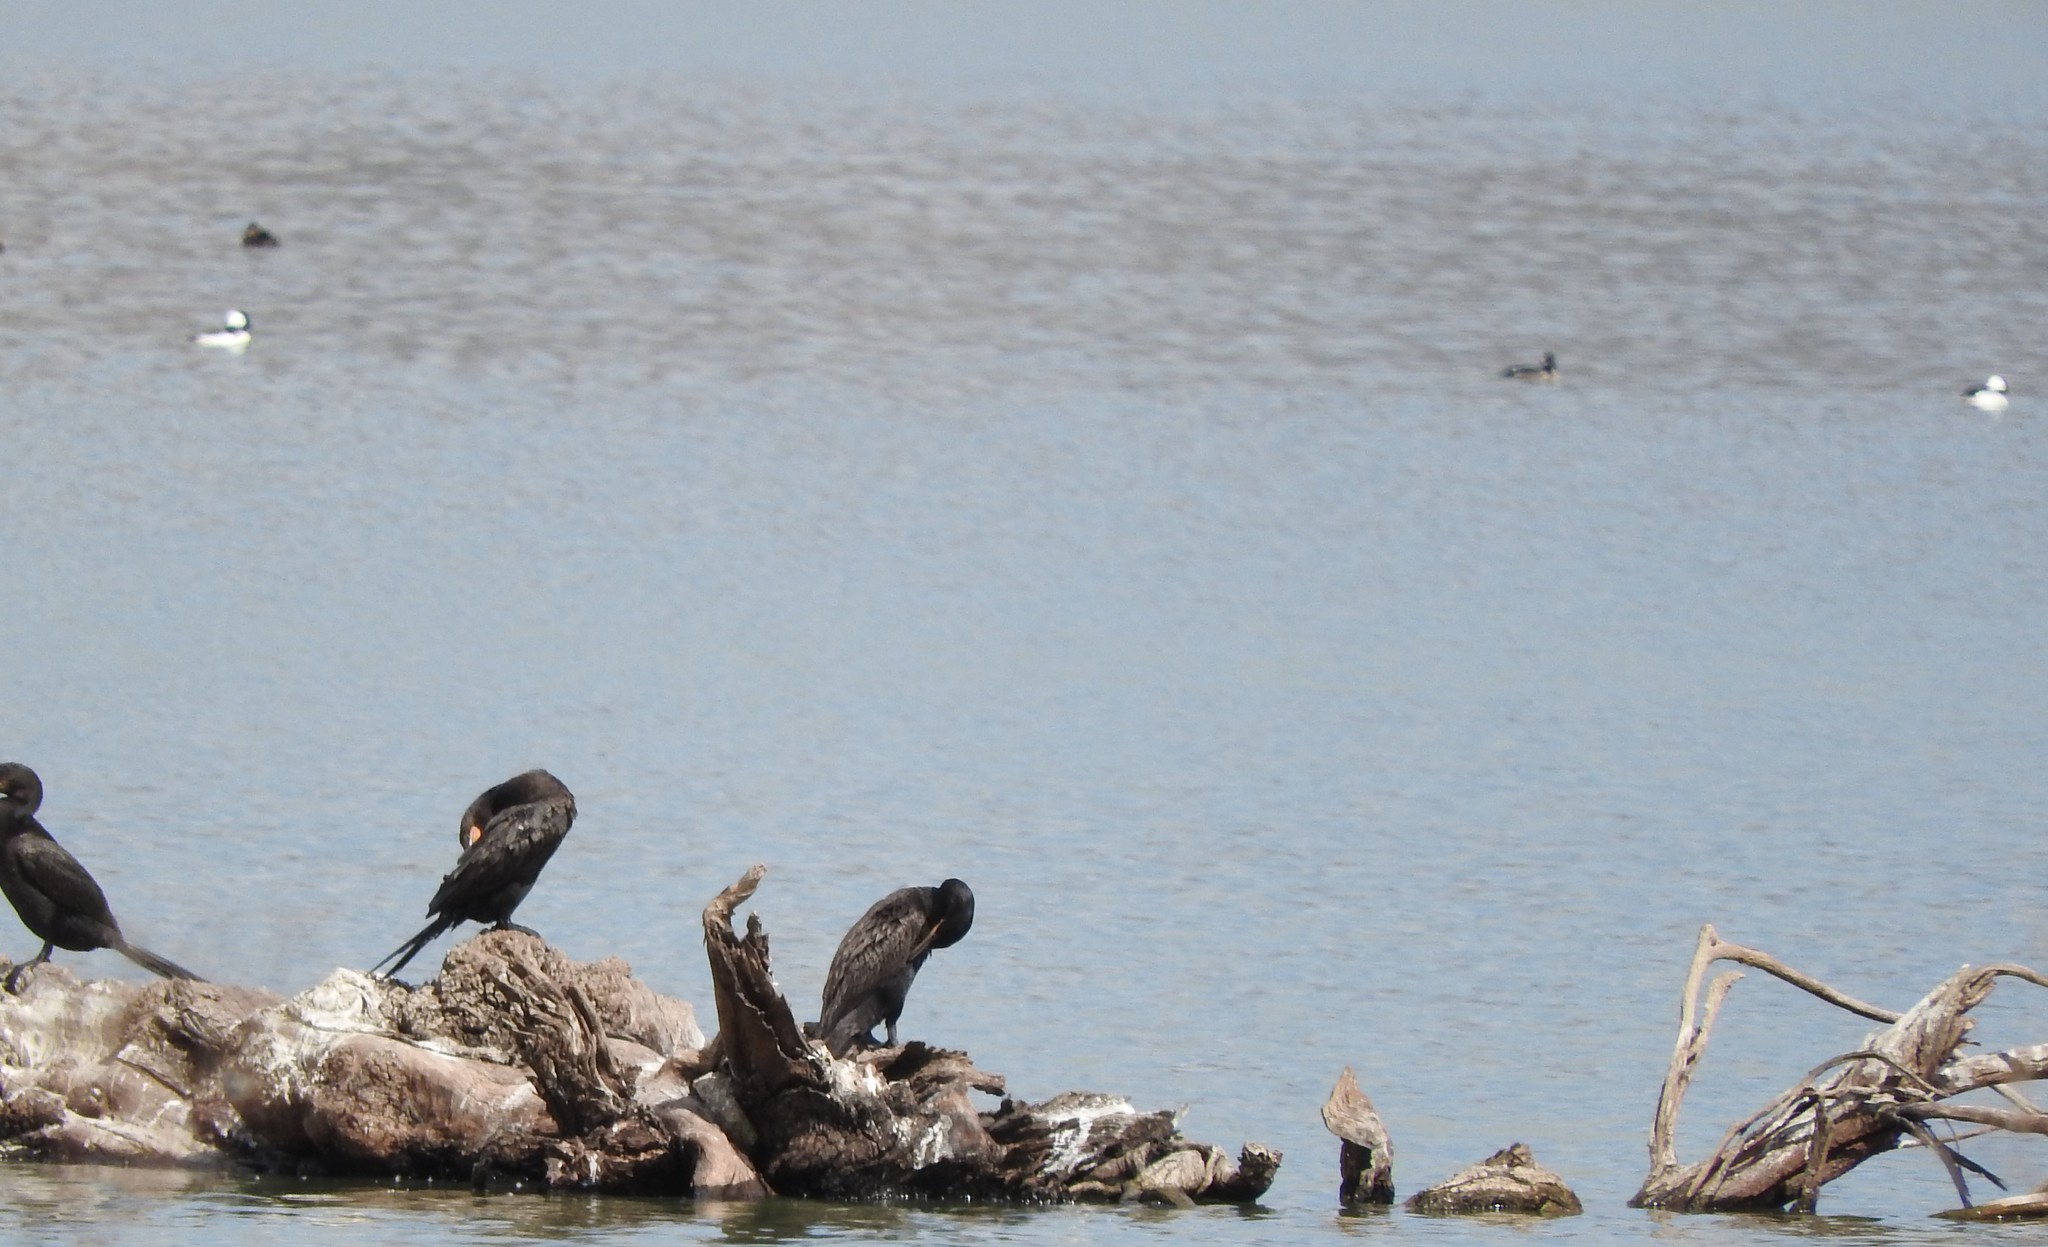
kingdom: Animalia
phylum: Chordata
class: Aves
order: Anseriformes
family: Anatidae
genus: Bucephala
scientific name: Bucephala albeola
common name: Bufflehead
